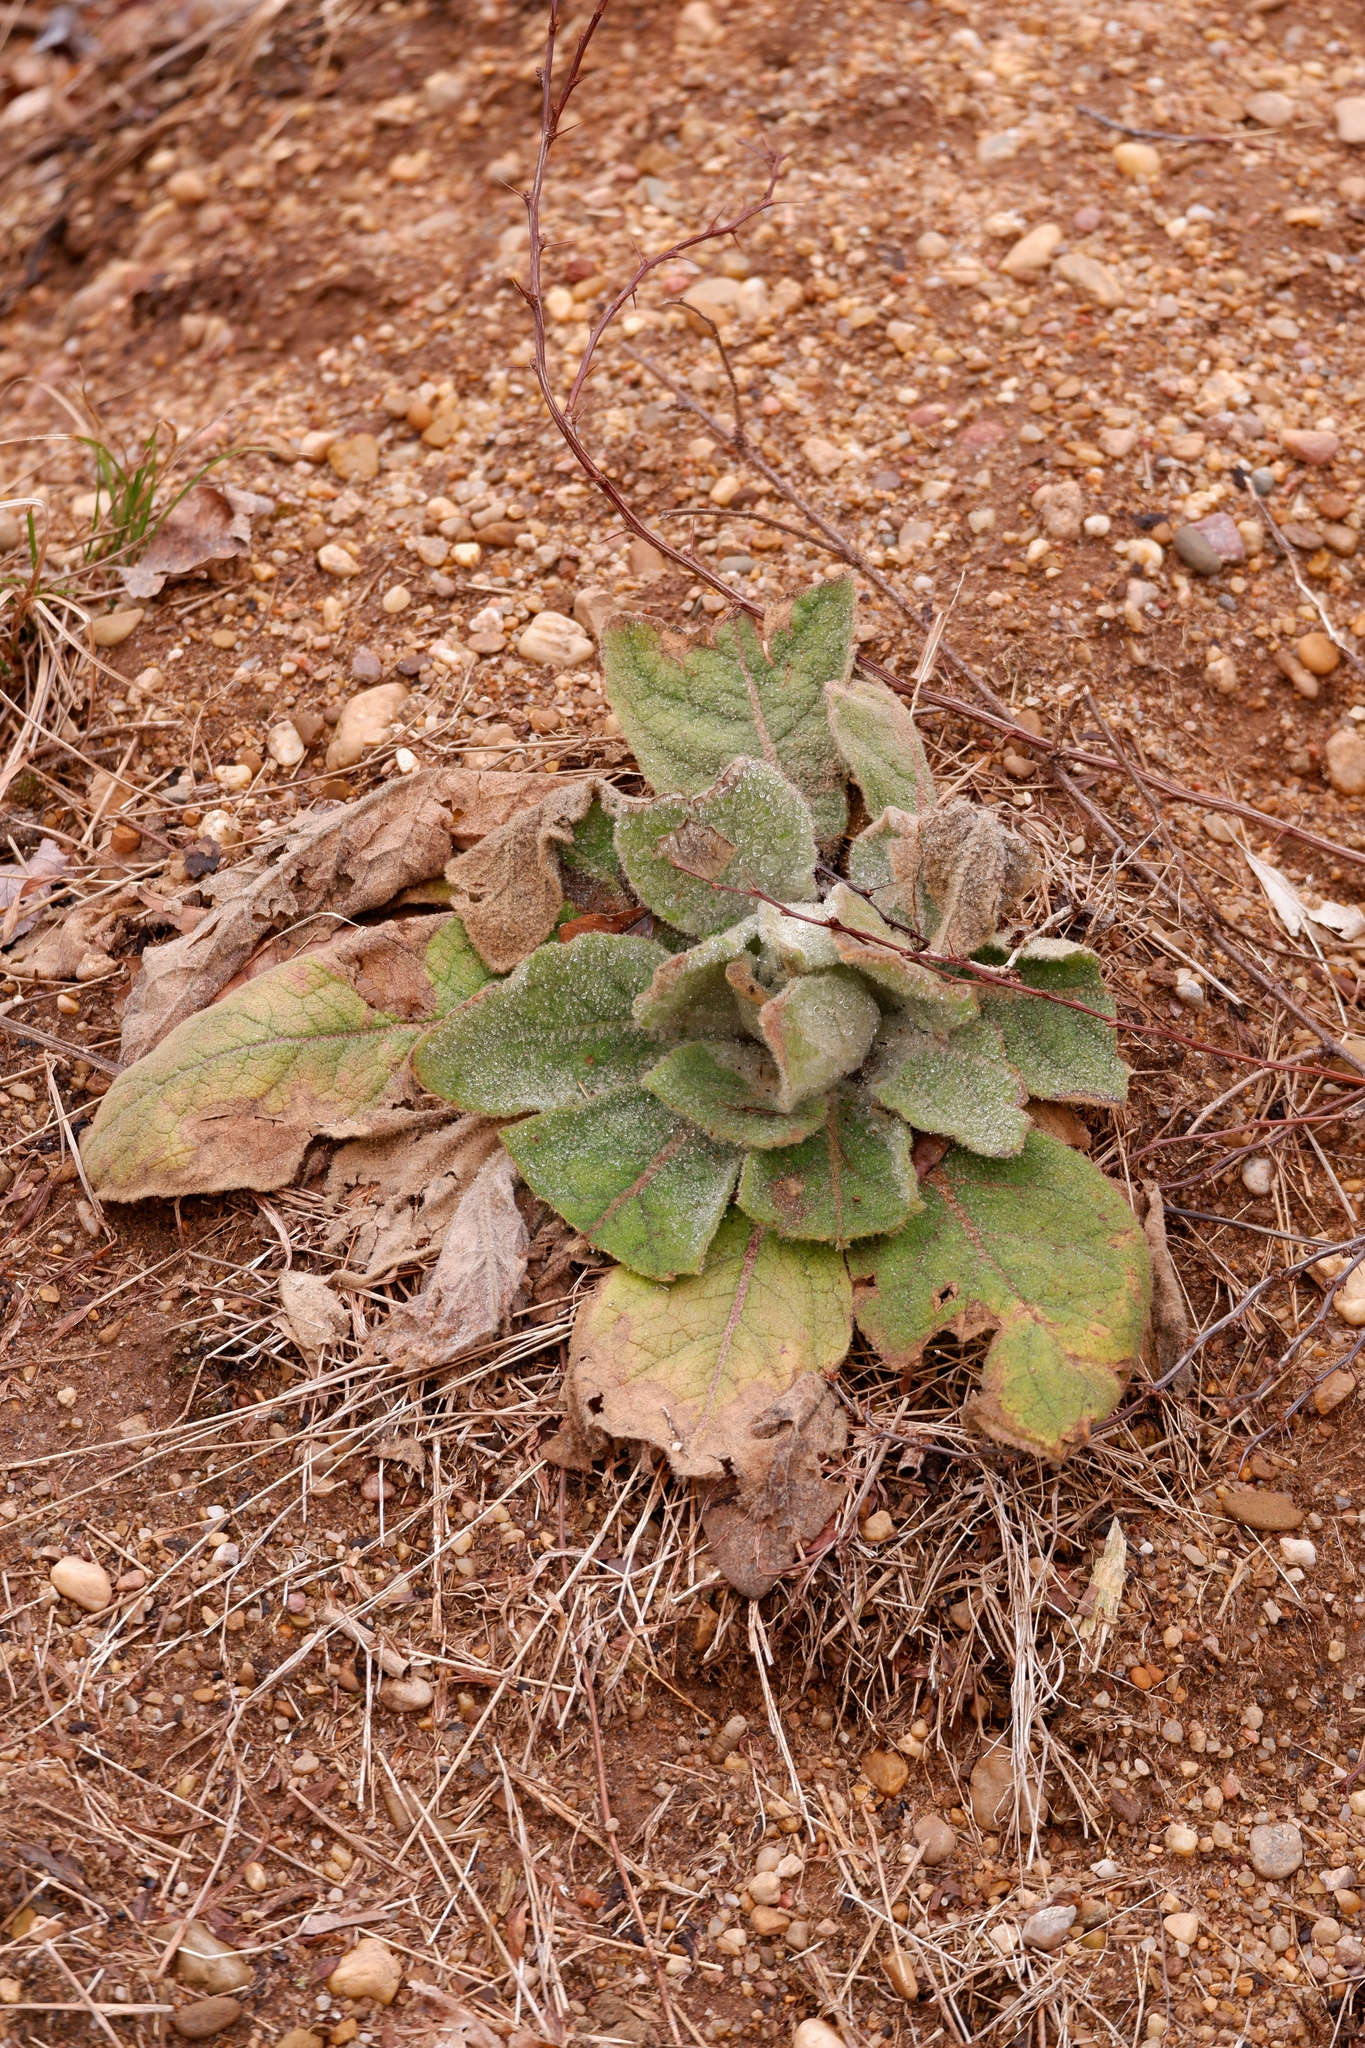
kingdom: Plantae
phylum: Tracheophyta
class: Magnoliopsida
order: Lamiales
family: Scrophulariaceae
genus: Verbascum
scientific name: Verbascum thapsus
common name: Common mullein
